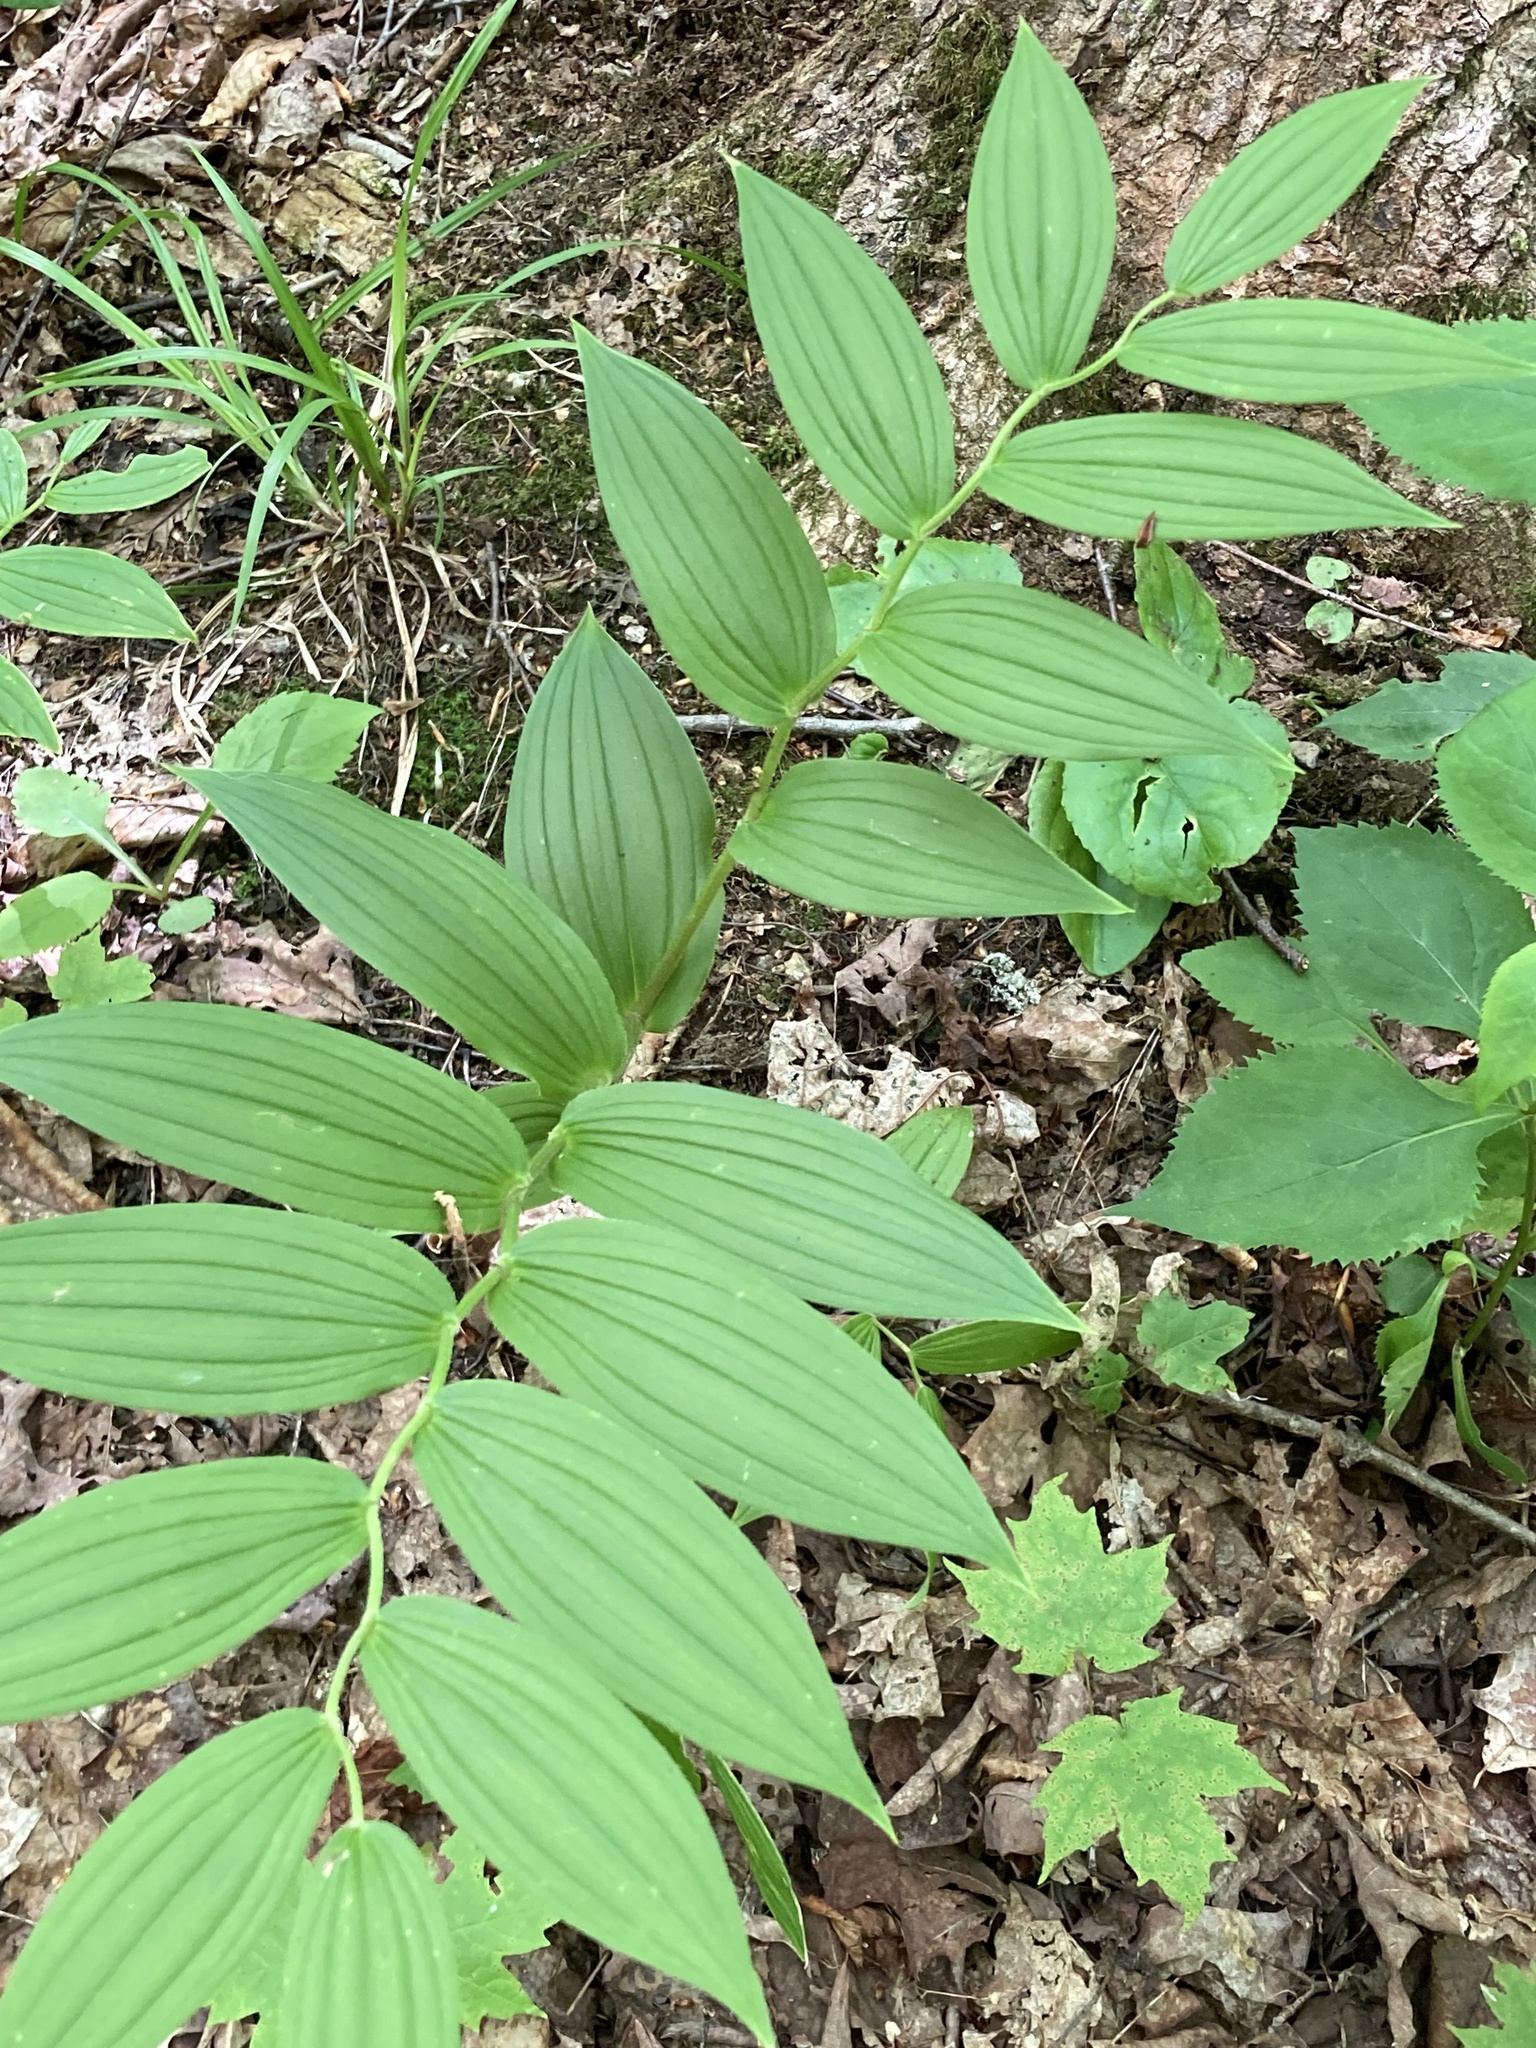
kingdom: Plantae
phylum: Tracheophyta
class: Liliopsida
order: Liliales
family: Liliaceae
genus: Streptopus
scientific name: Streptopus lanceolatus
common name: Rose mandarin
